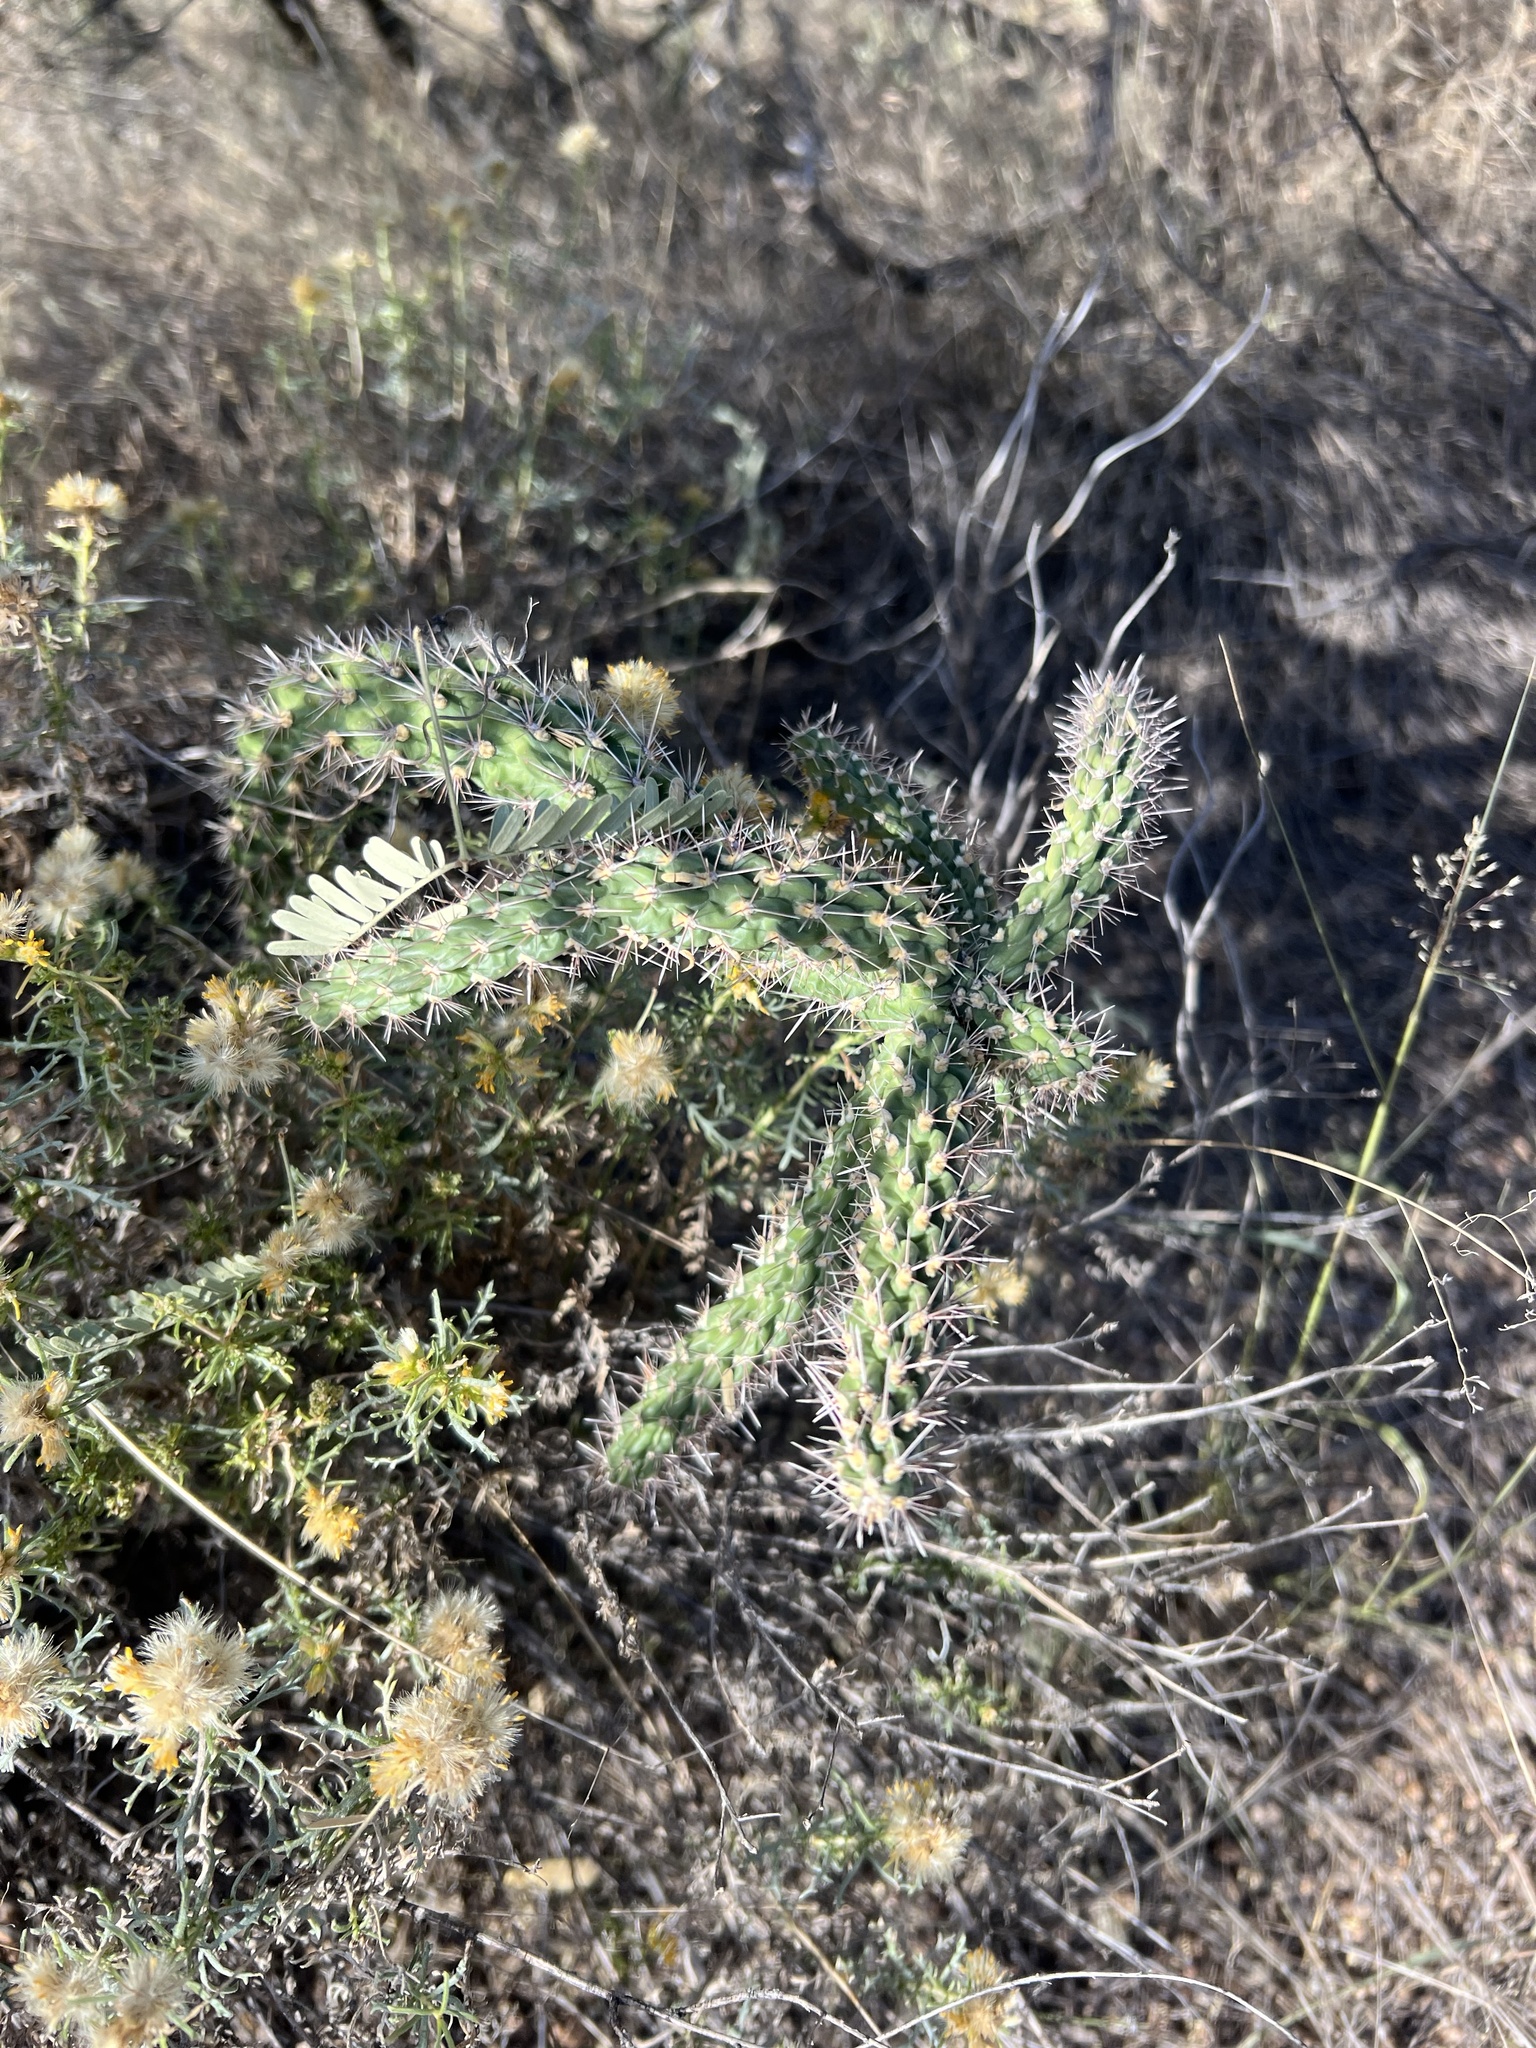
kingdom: Plantae
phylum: Tracheophyta
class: Magnoliopsida
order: Caryophyllales
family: Cactaceae
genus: Cylindropuntia
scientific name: Cylindropuntia imbricata
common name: Candelabrum cactus
